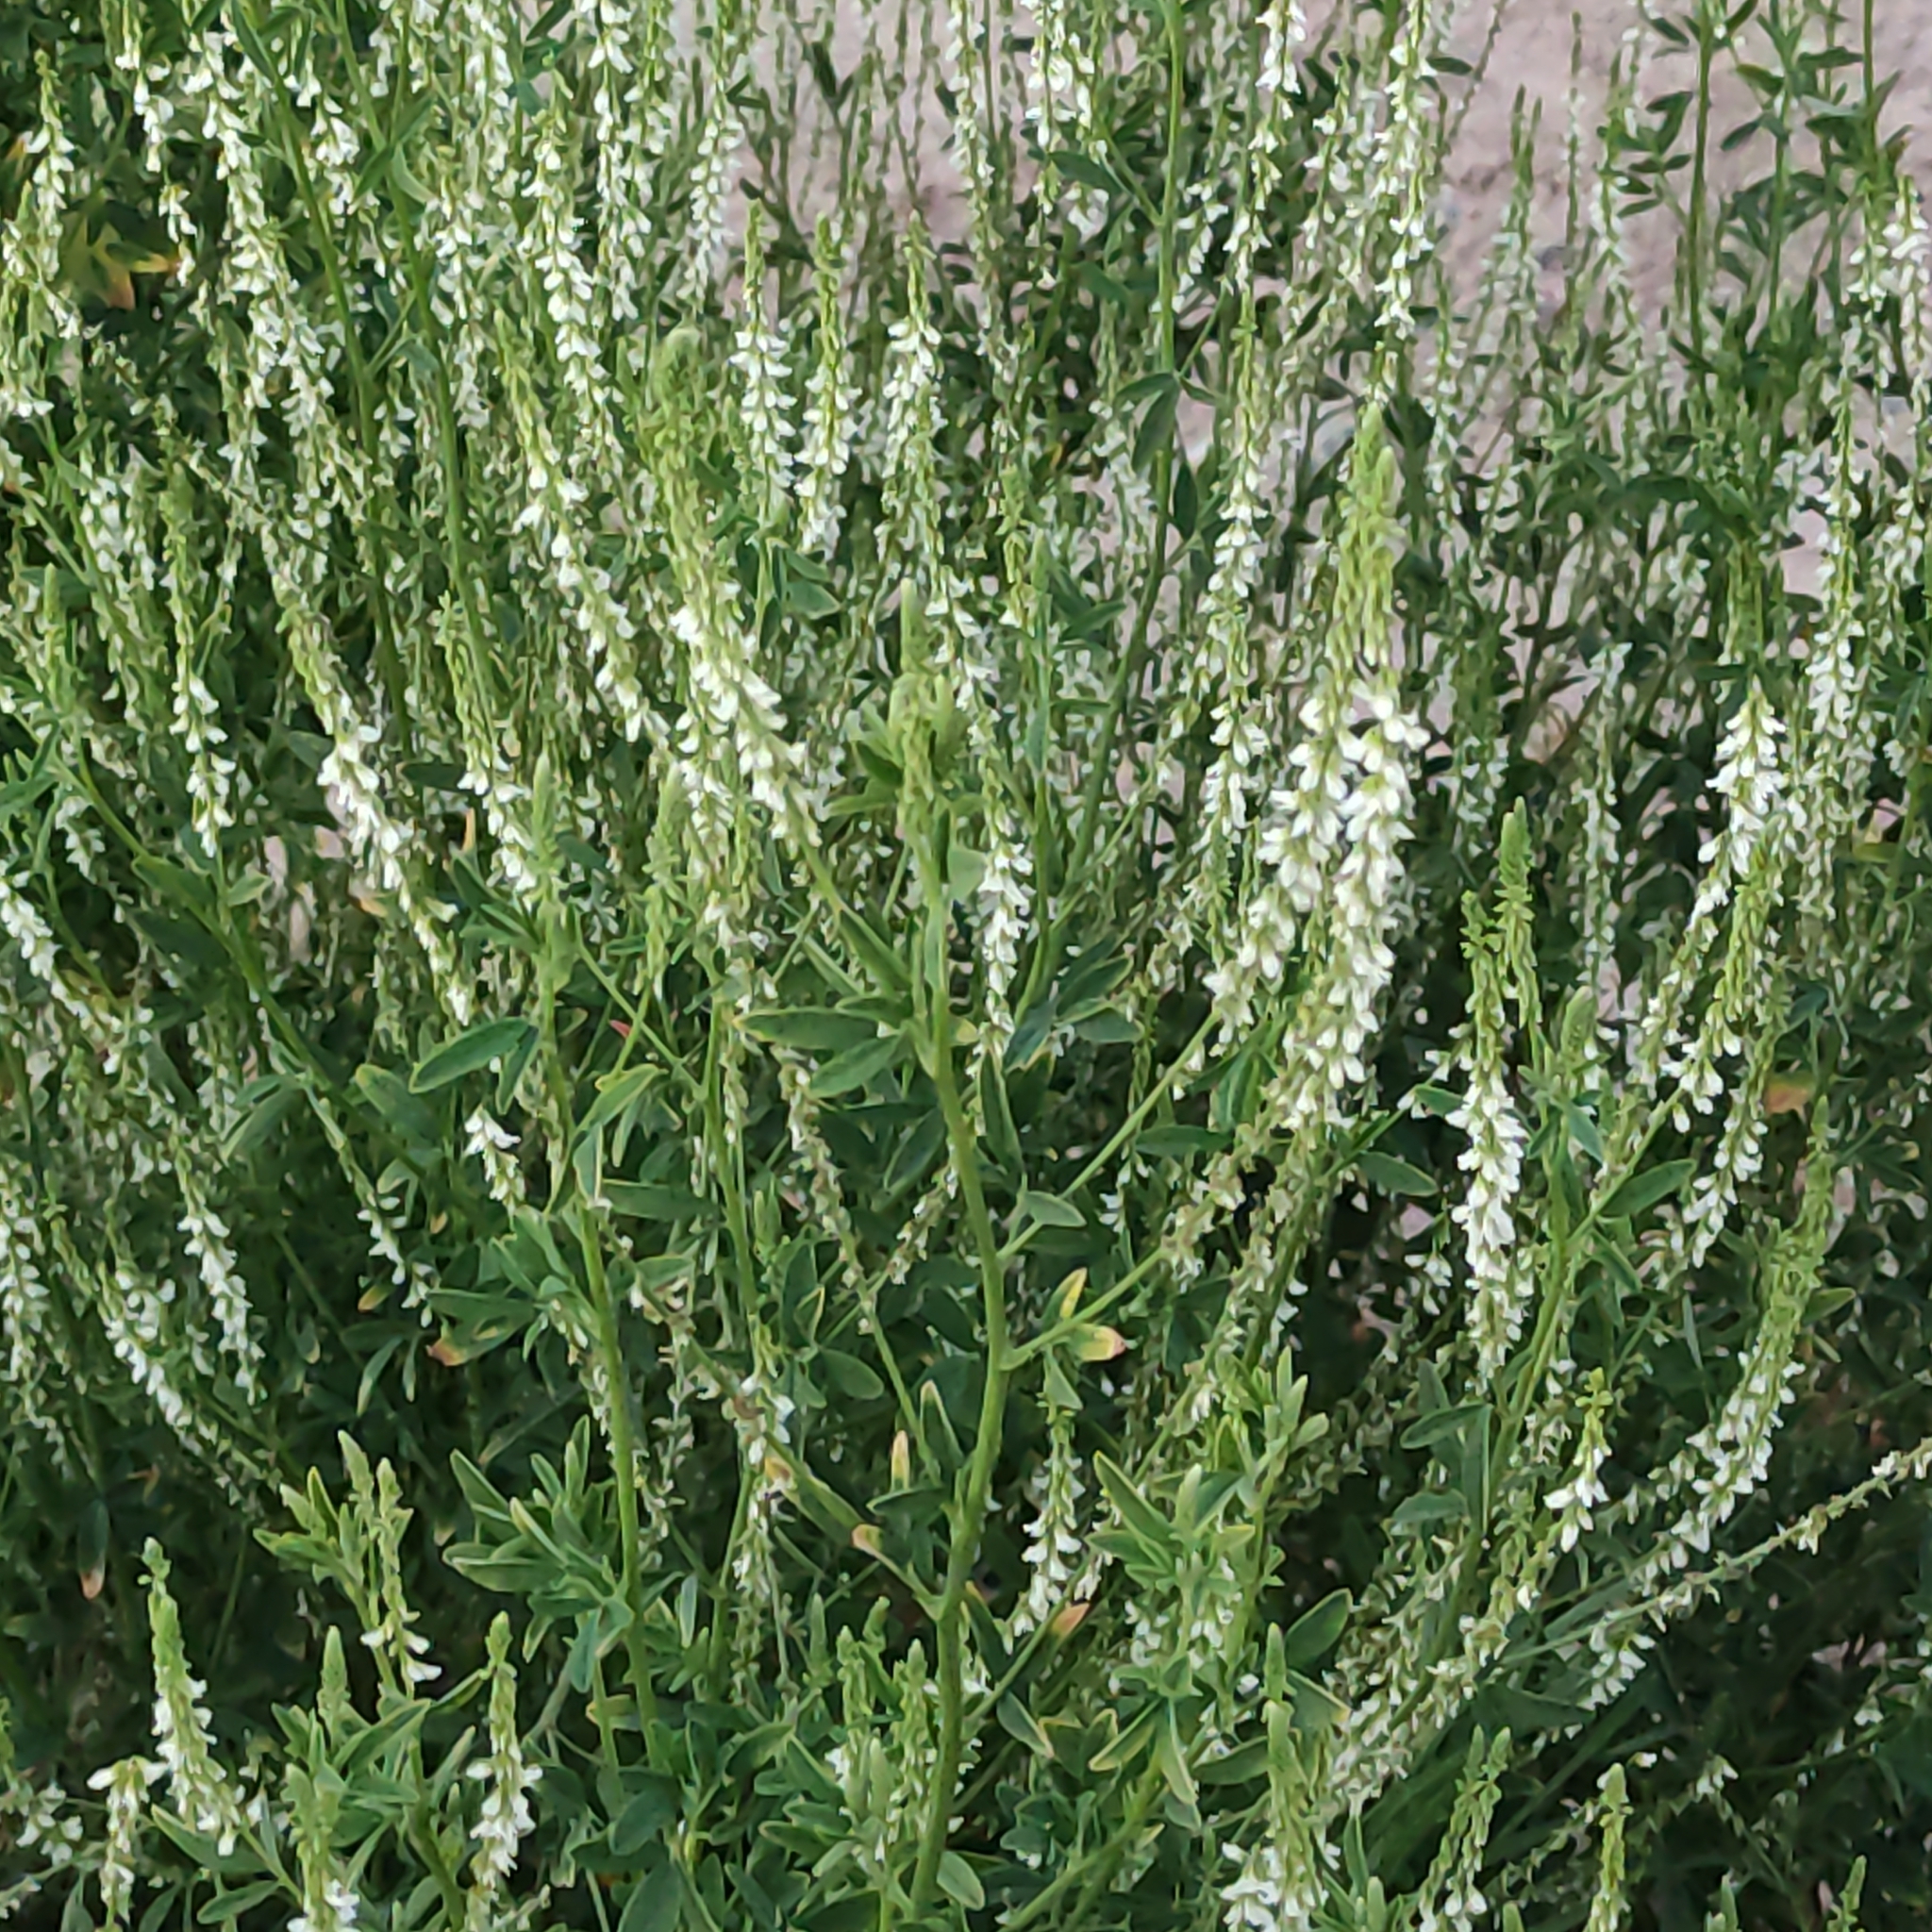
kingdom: Plantae
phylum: Tracheophyta
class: Magnoliopsida
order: Fabales
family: Fabaceae
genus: Melilotus
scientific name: Melilotus albus
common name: White melilot
